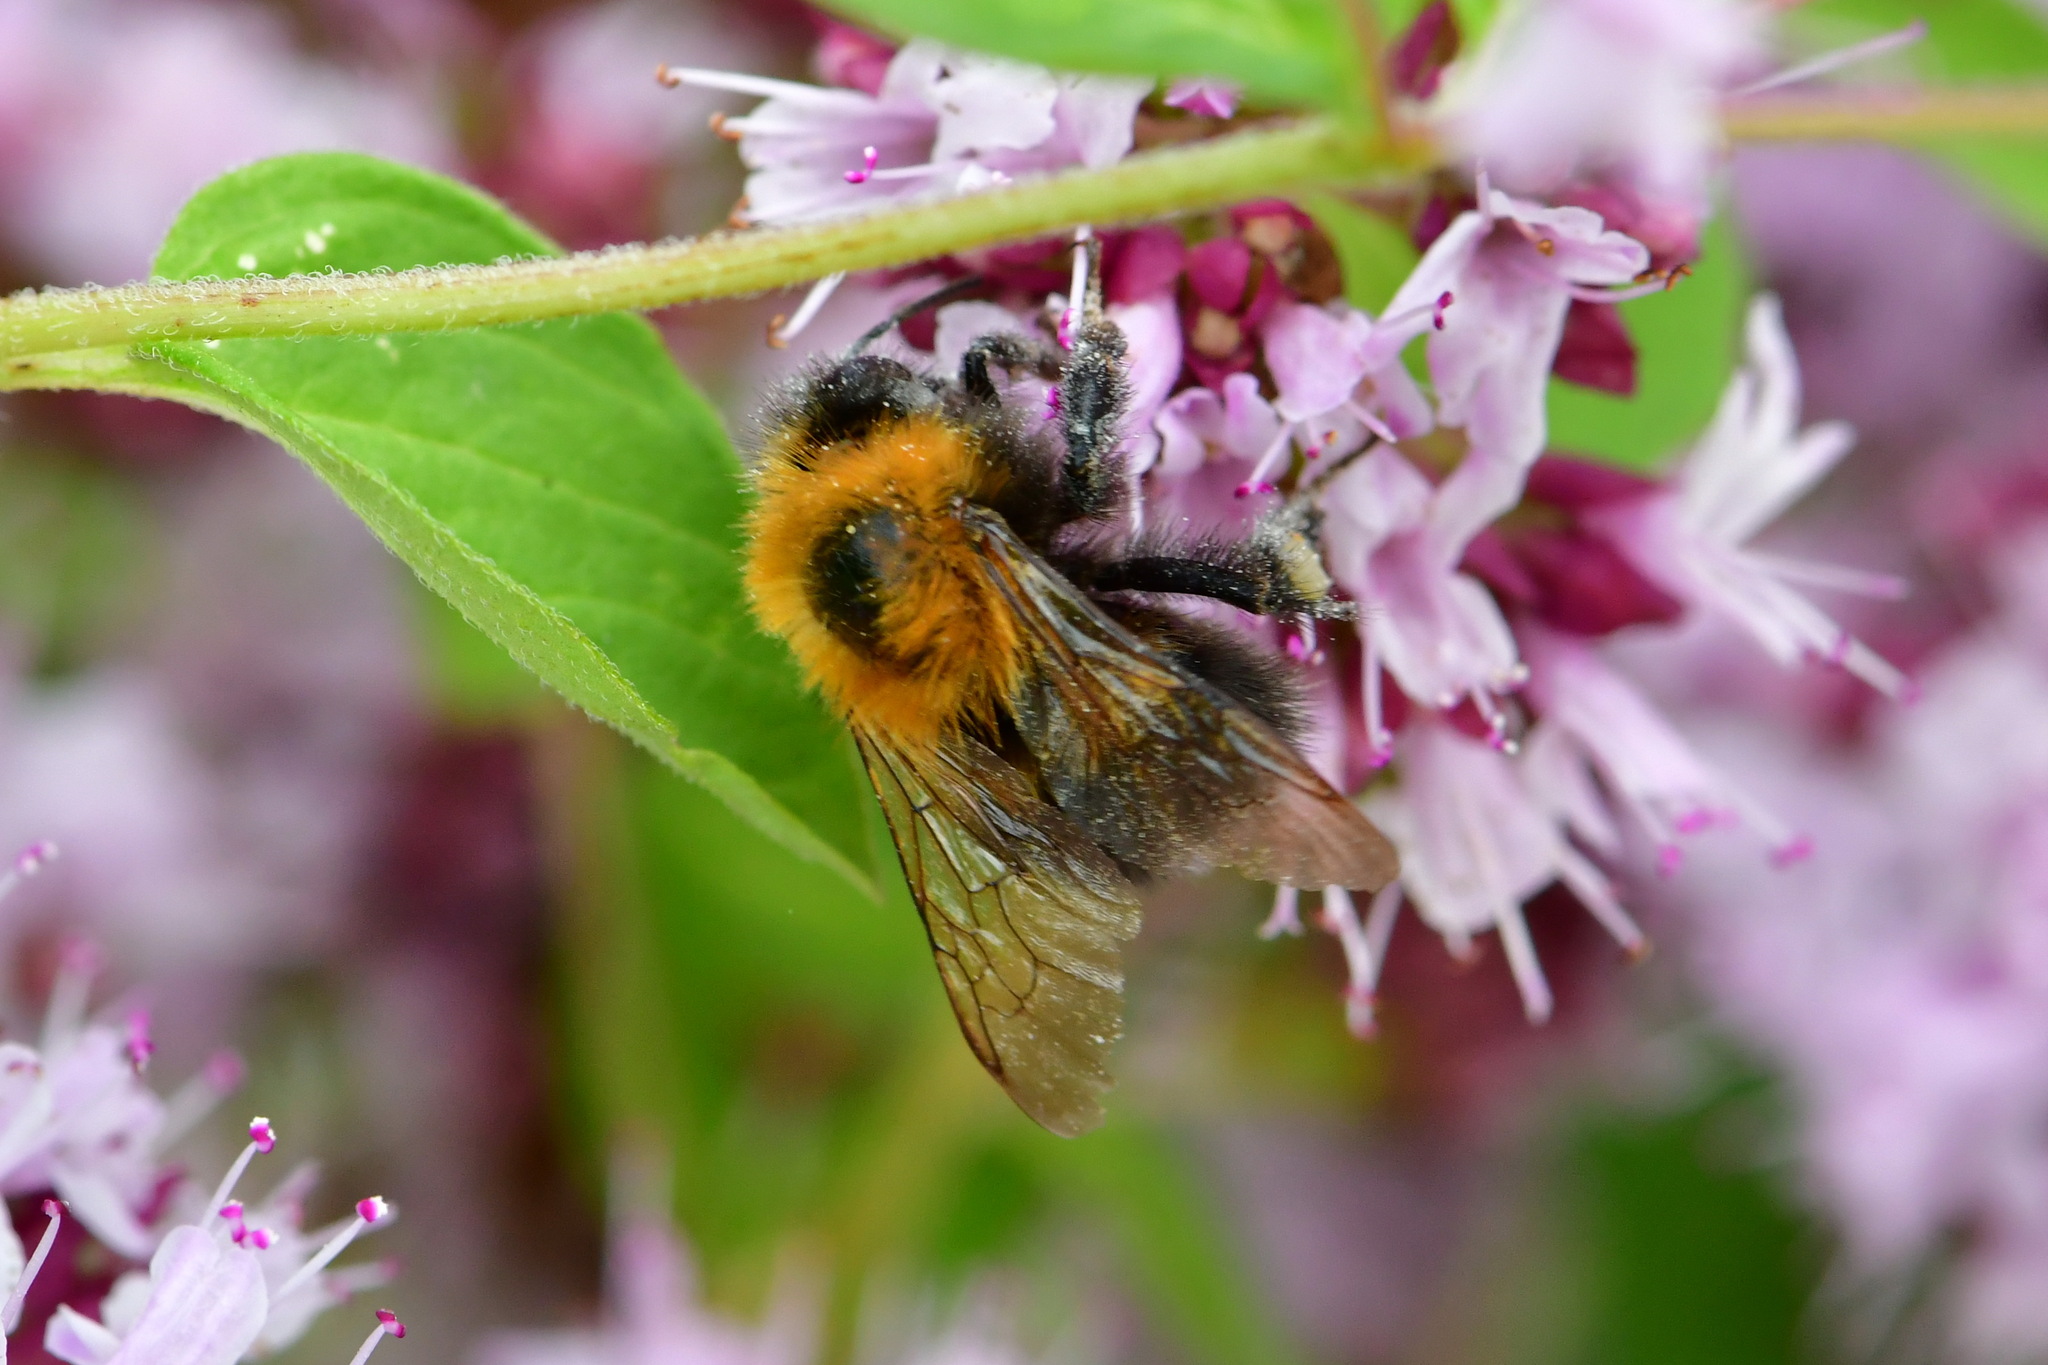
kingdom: Animalia
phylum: Arthropoda
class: Insecta
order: Hymenoptera
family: Apidae
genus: Bombus
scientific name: Bombus hypnorum
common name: New garden bumblebee
